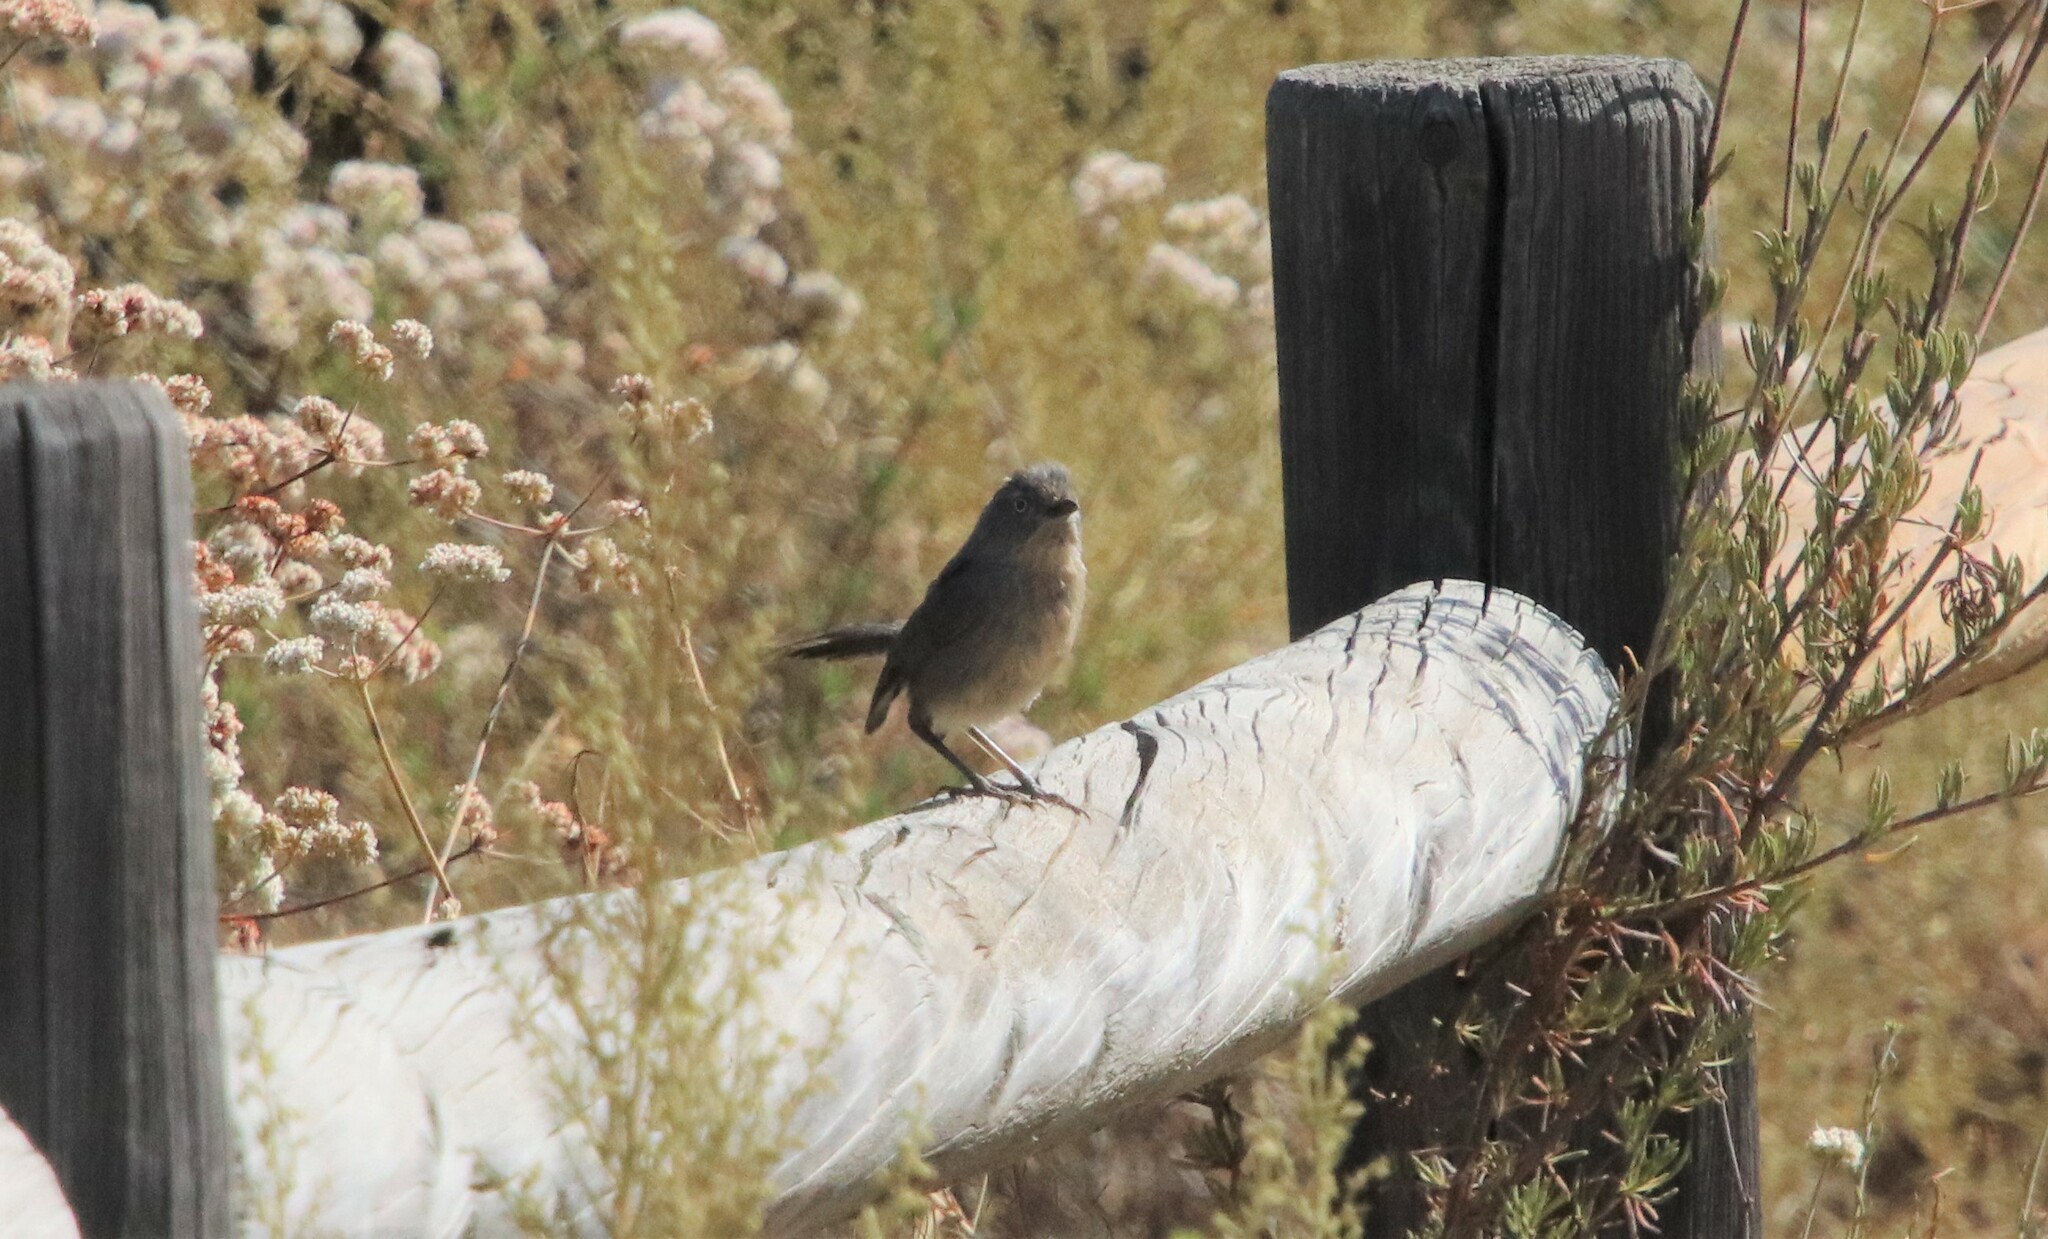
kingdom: Animalia
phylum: Chordata
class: Aves
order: Passeriformes
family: Sylviidae
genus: Chamaea
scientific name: Chamaea fasciata
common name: Wrentit
